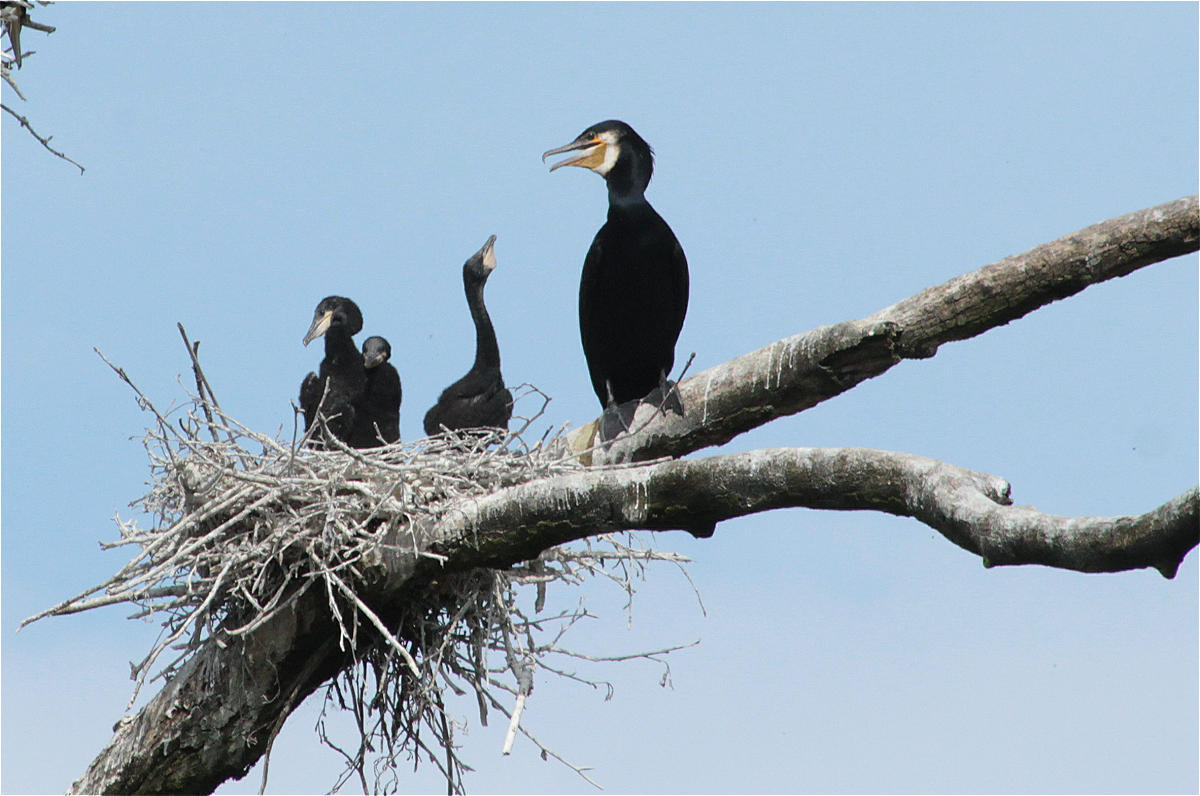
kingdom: Animalia
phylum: Chordata
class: Aves
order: Suliformes
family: Phalacrocoracidae
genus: Phalacrocorax
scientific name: Phalacrocorax carbo
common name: Great cormorant
